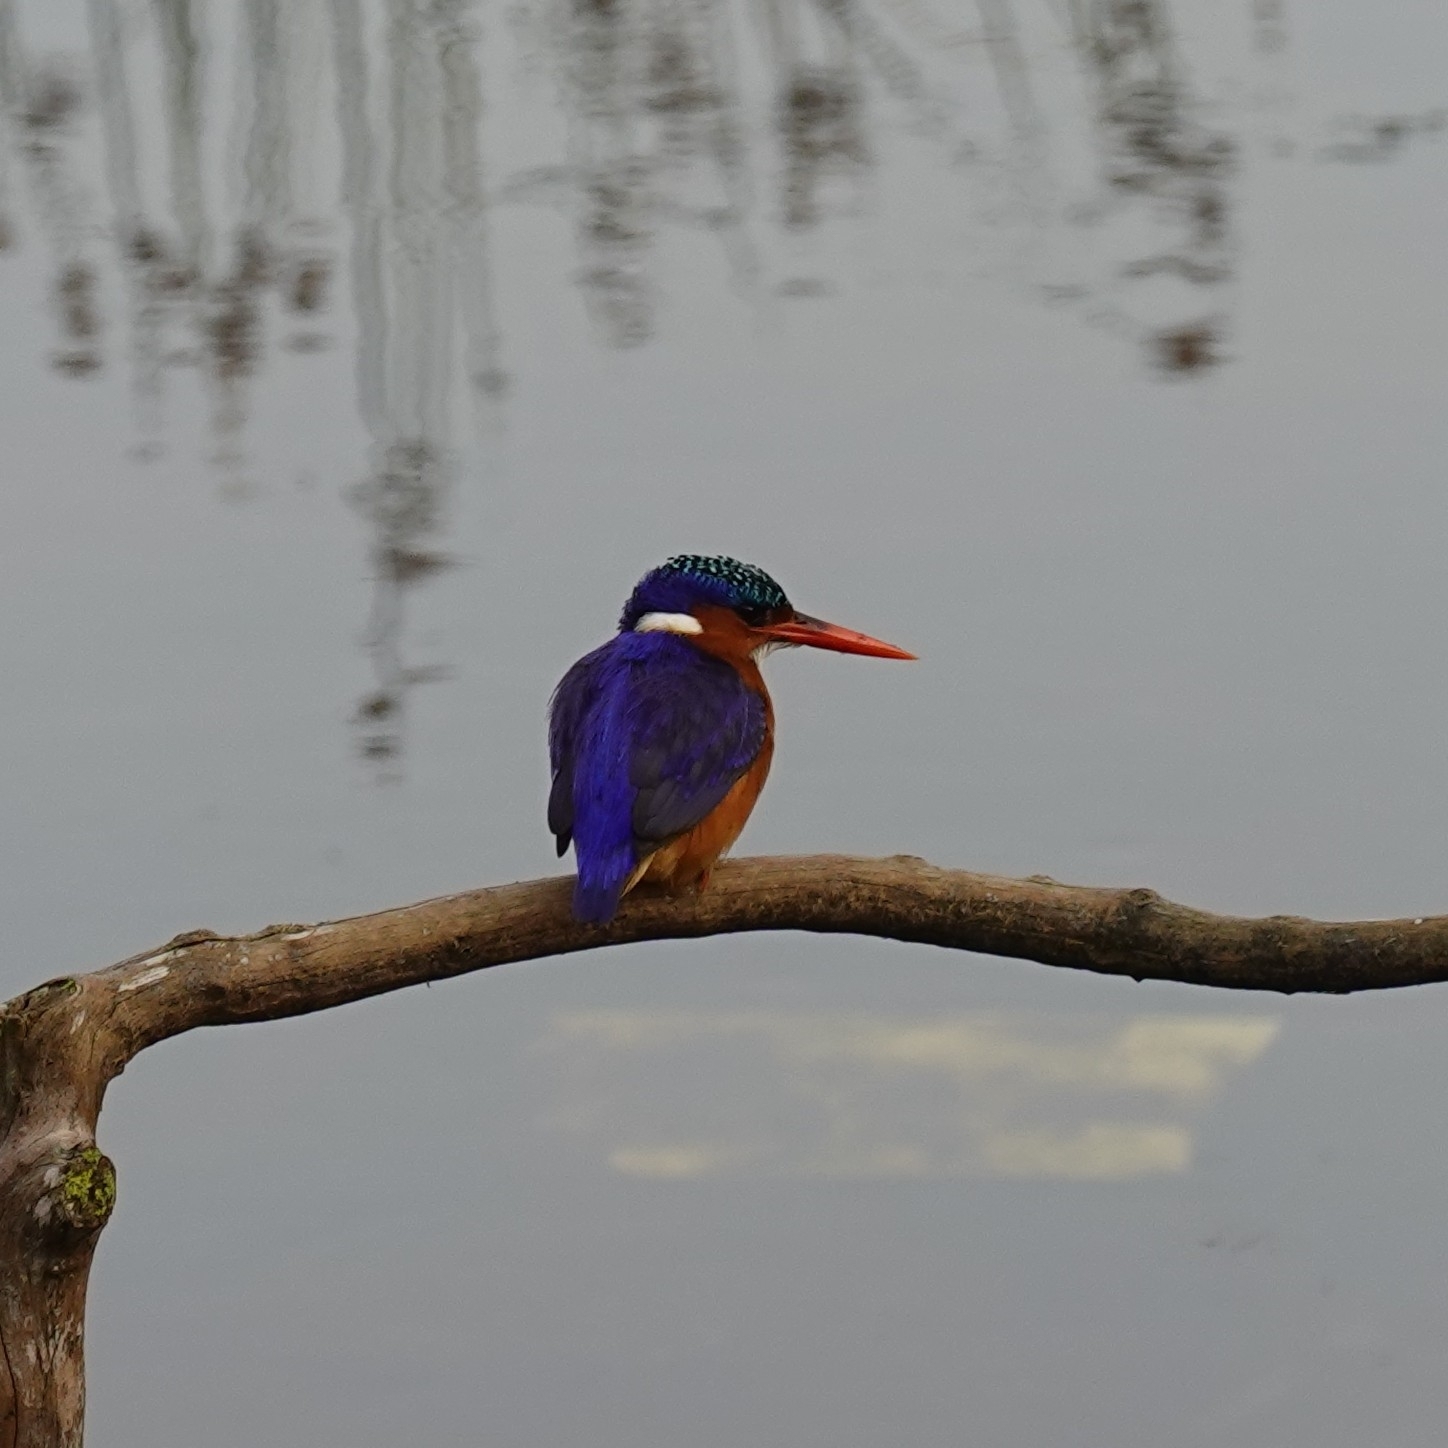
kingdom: Animalia
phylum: Chordata
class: Aves
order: Coraciiformes
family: Alcedinidae
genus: Corythornis
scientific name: Corythornis cristatus
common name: Malachite kingfisher
